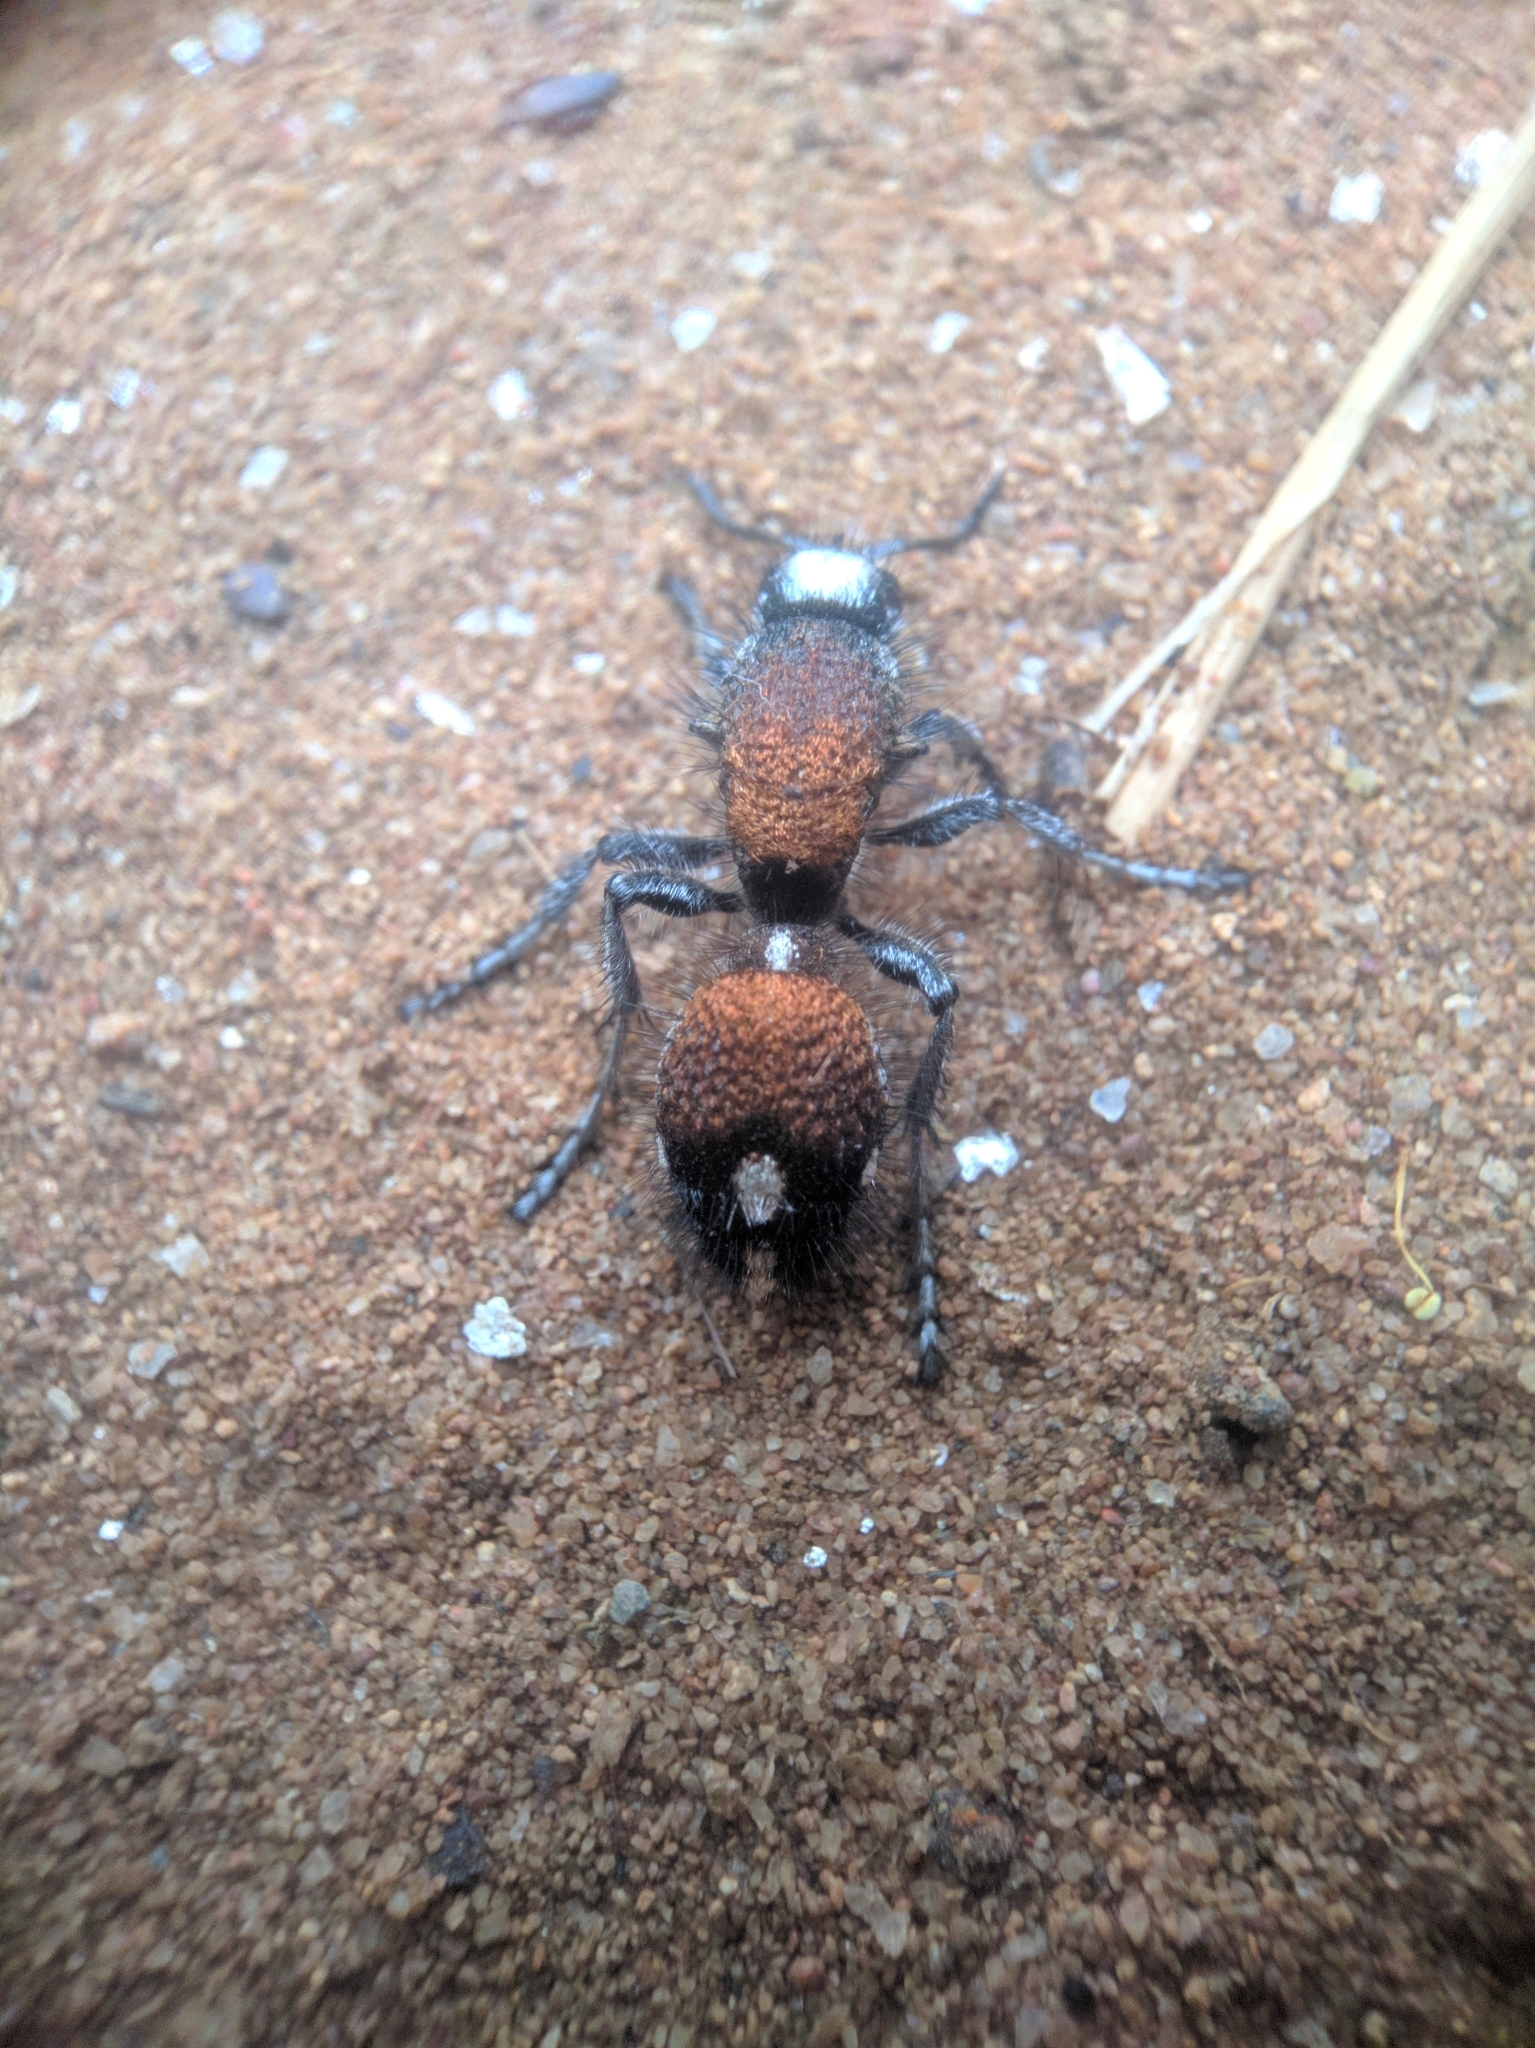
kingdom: Animalia
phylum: Arthropoda
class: Insecta
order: Hymenoptera
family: Mutillidae
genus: Dasylabris
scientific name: Dasylabris
